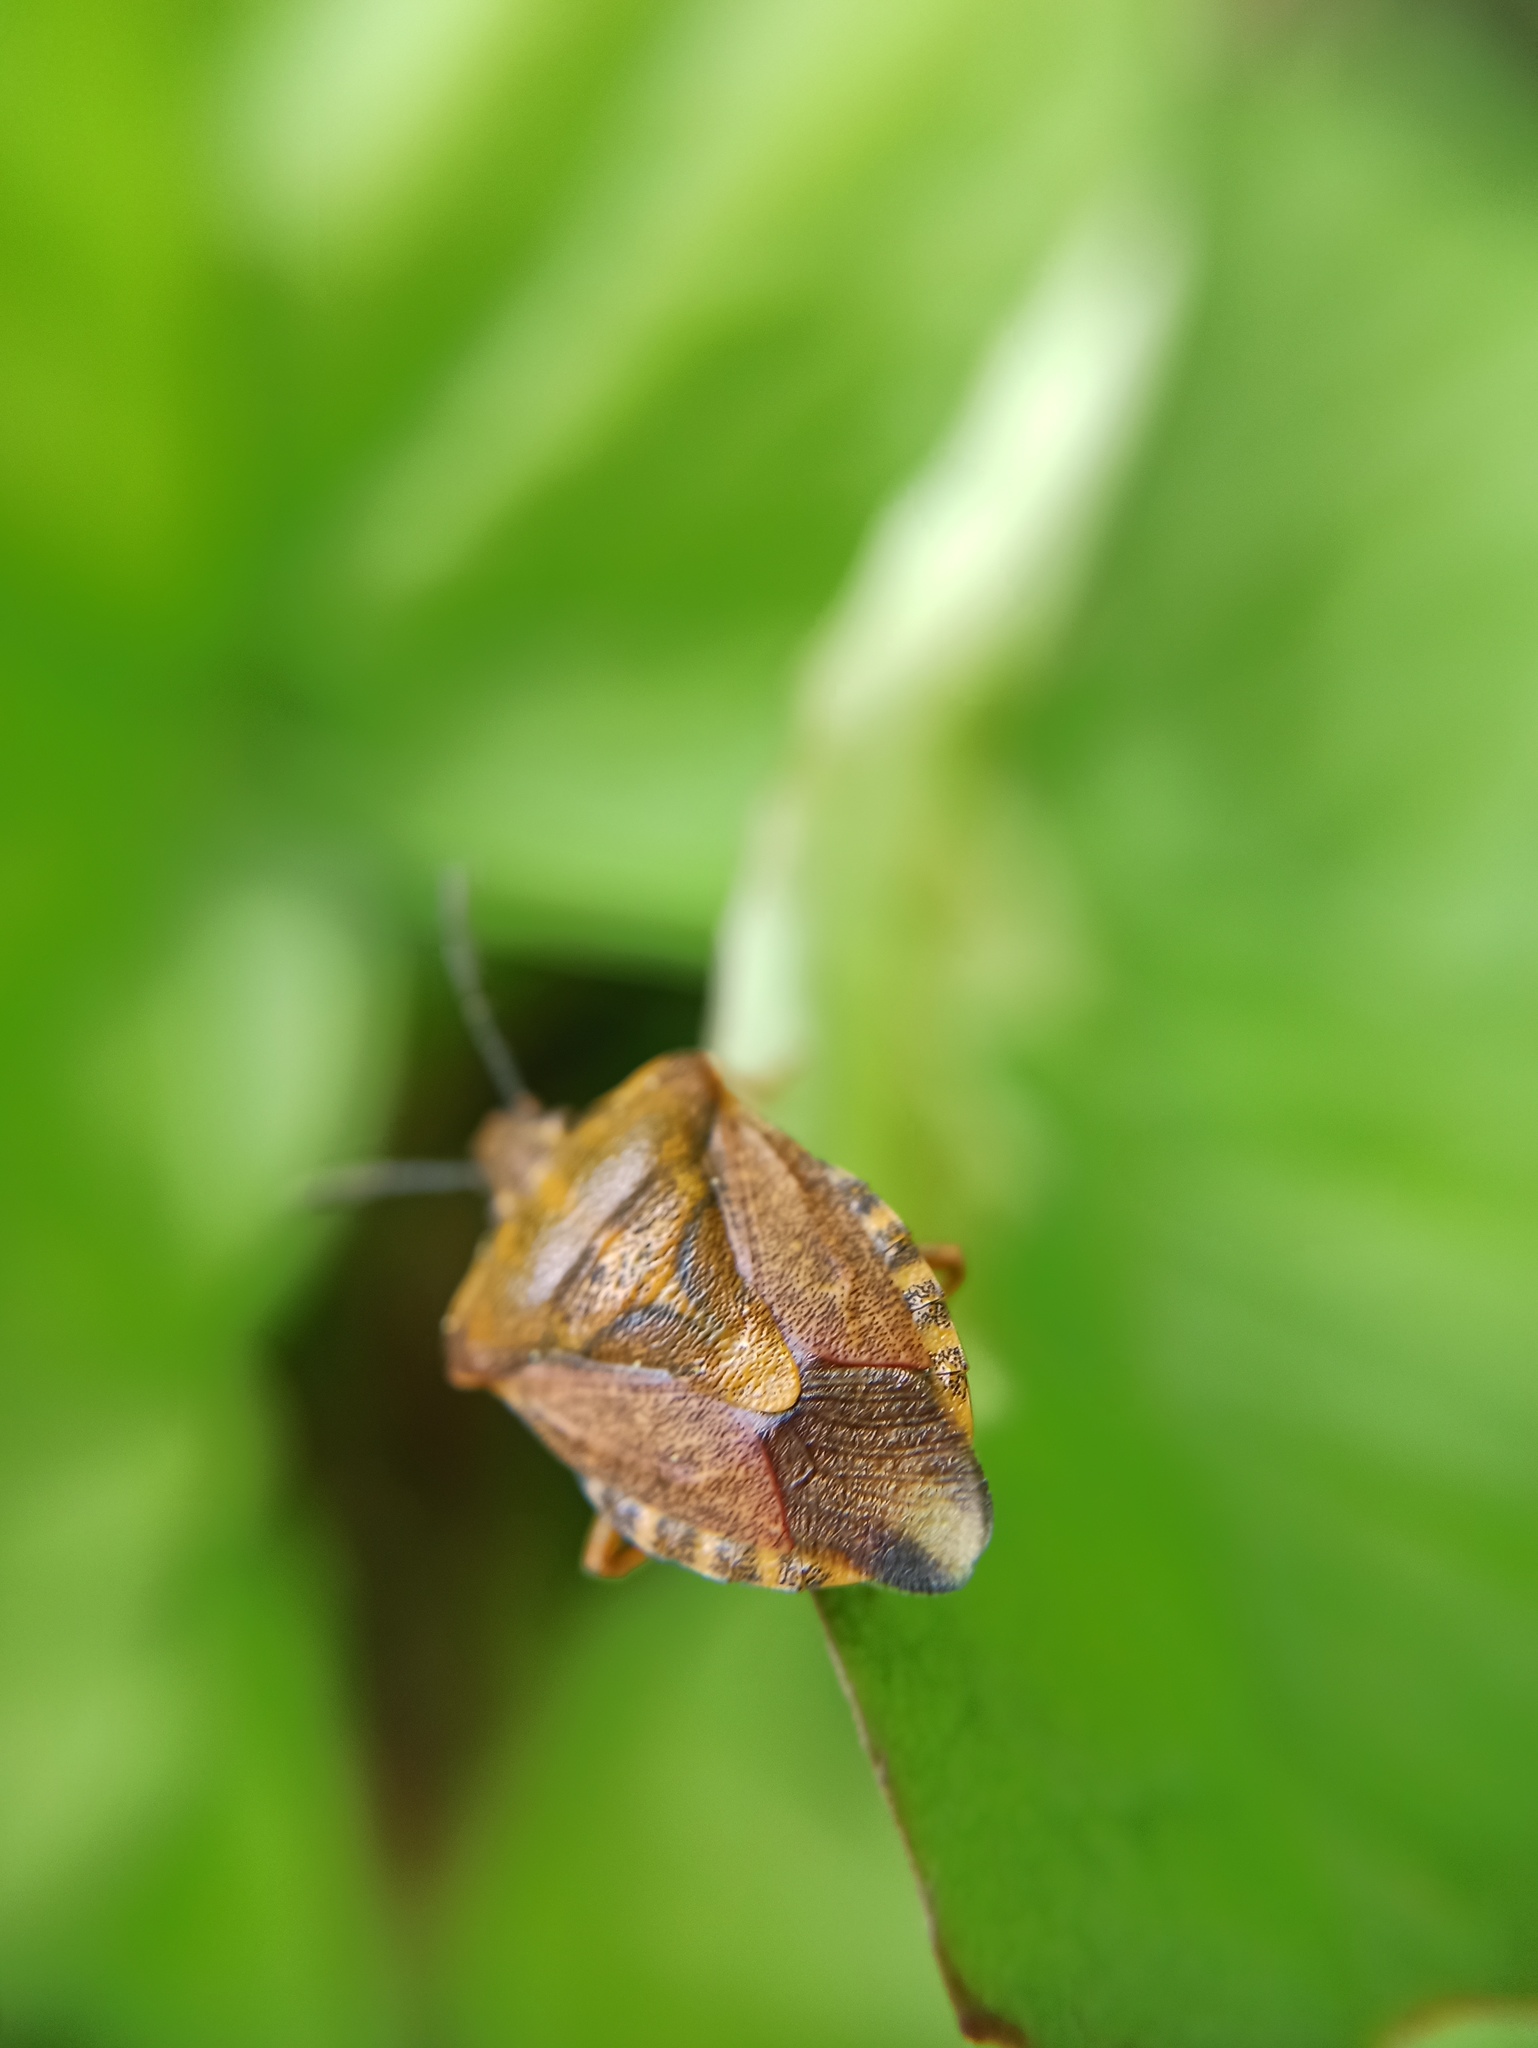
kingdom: Animalia
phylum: Arthropoda
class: Insecta
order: Hemiptera
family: Pentatomidae
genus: Carpocoris
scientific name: Carpocoris purpureipennis
